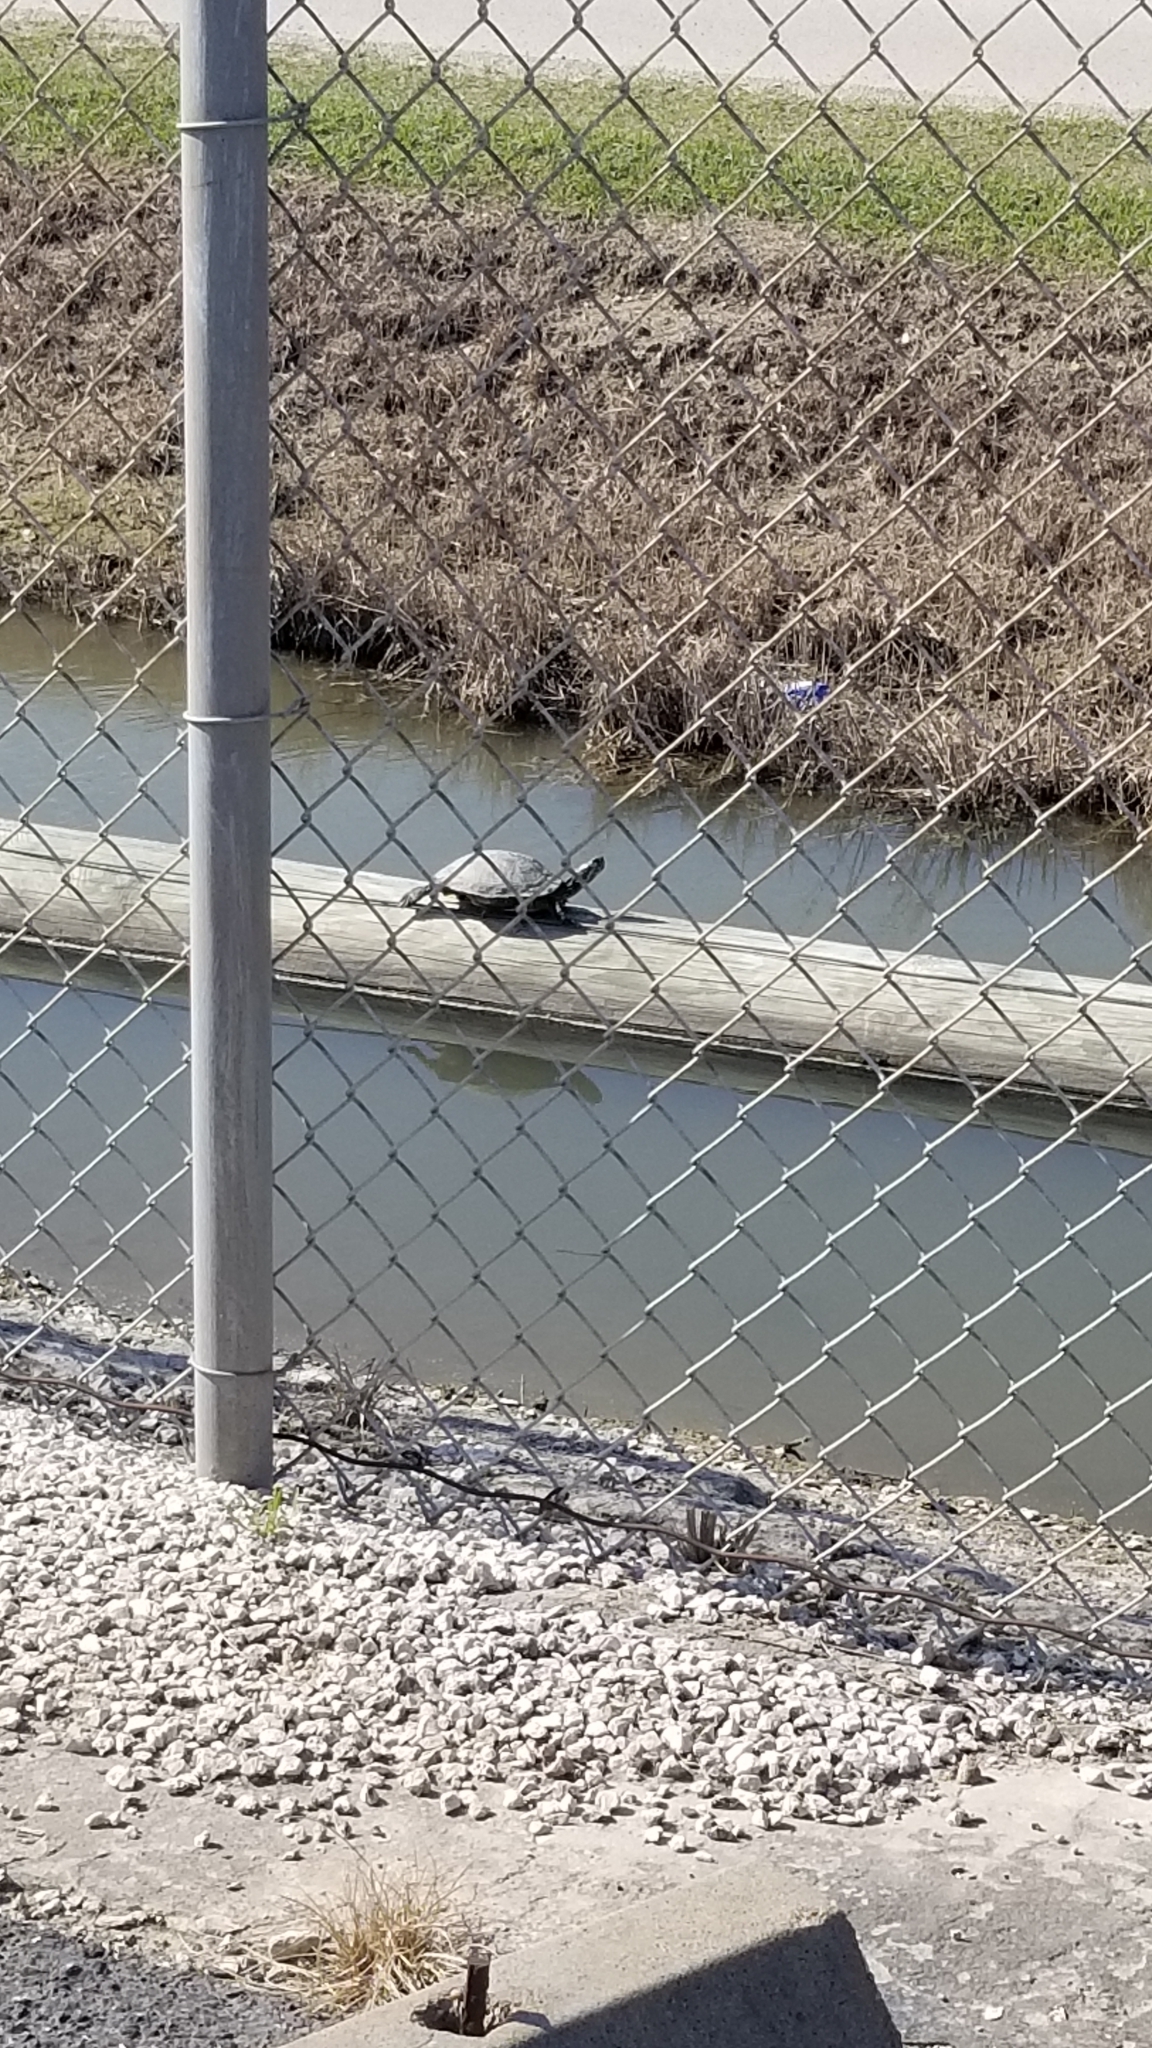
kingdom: Animalia
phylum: Chordata
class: Testudines
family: Emydidae
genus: Trachemys
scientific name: Trachemys scripta
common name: Slider
